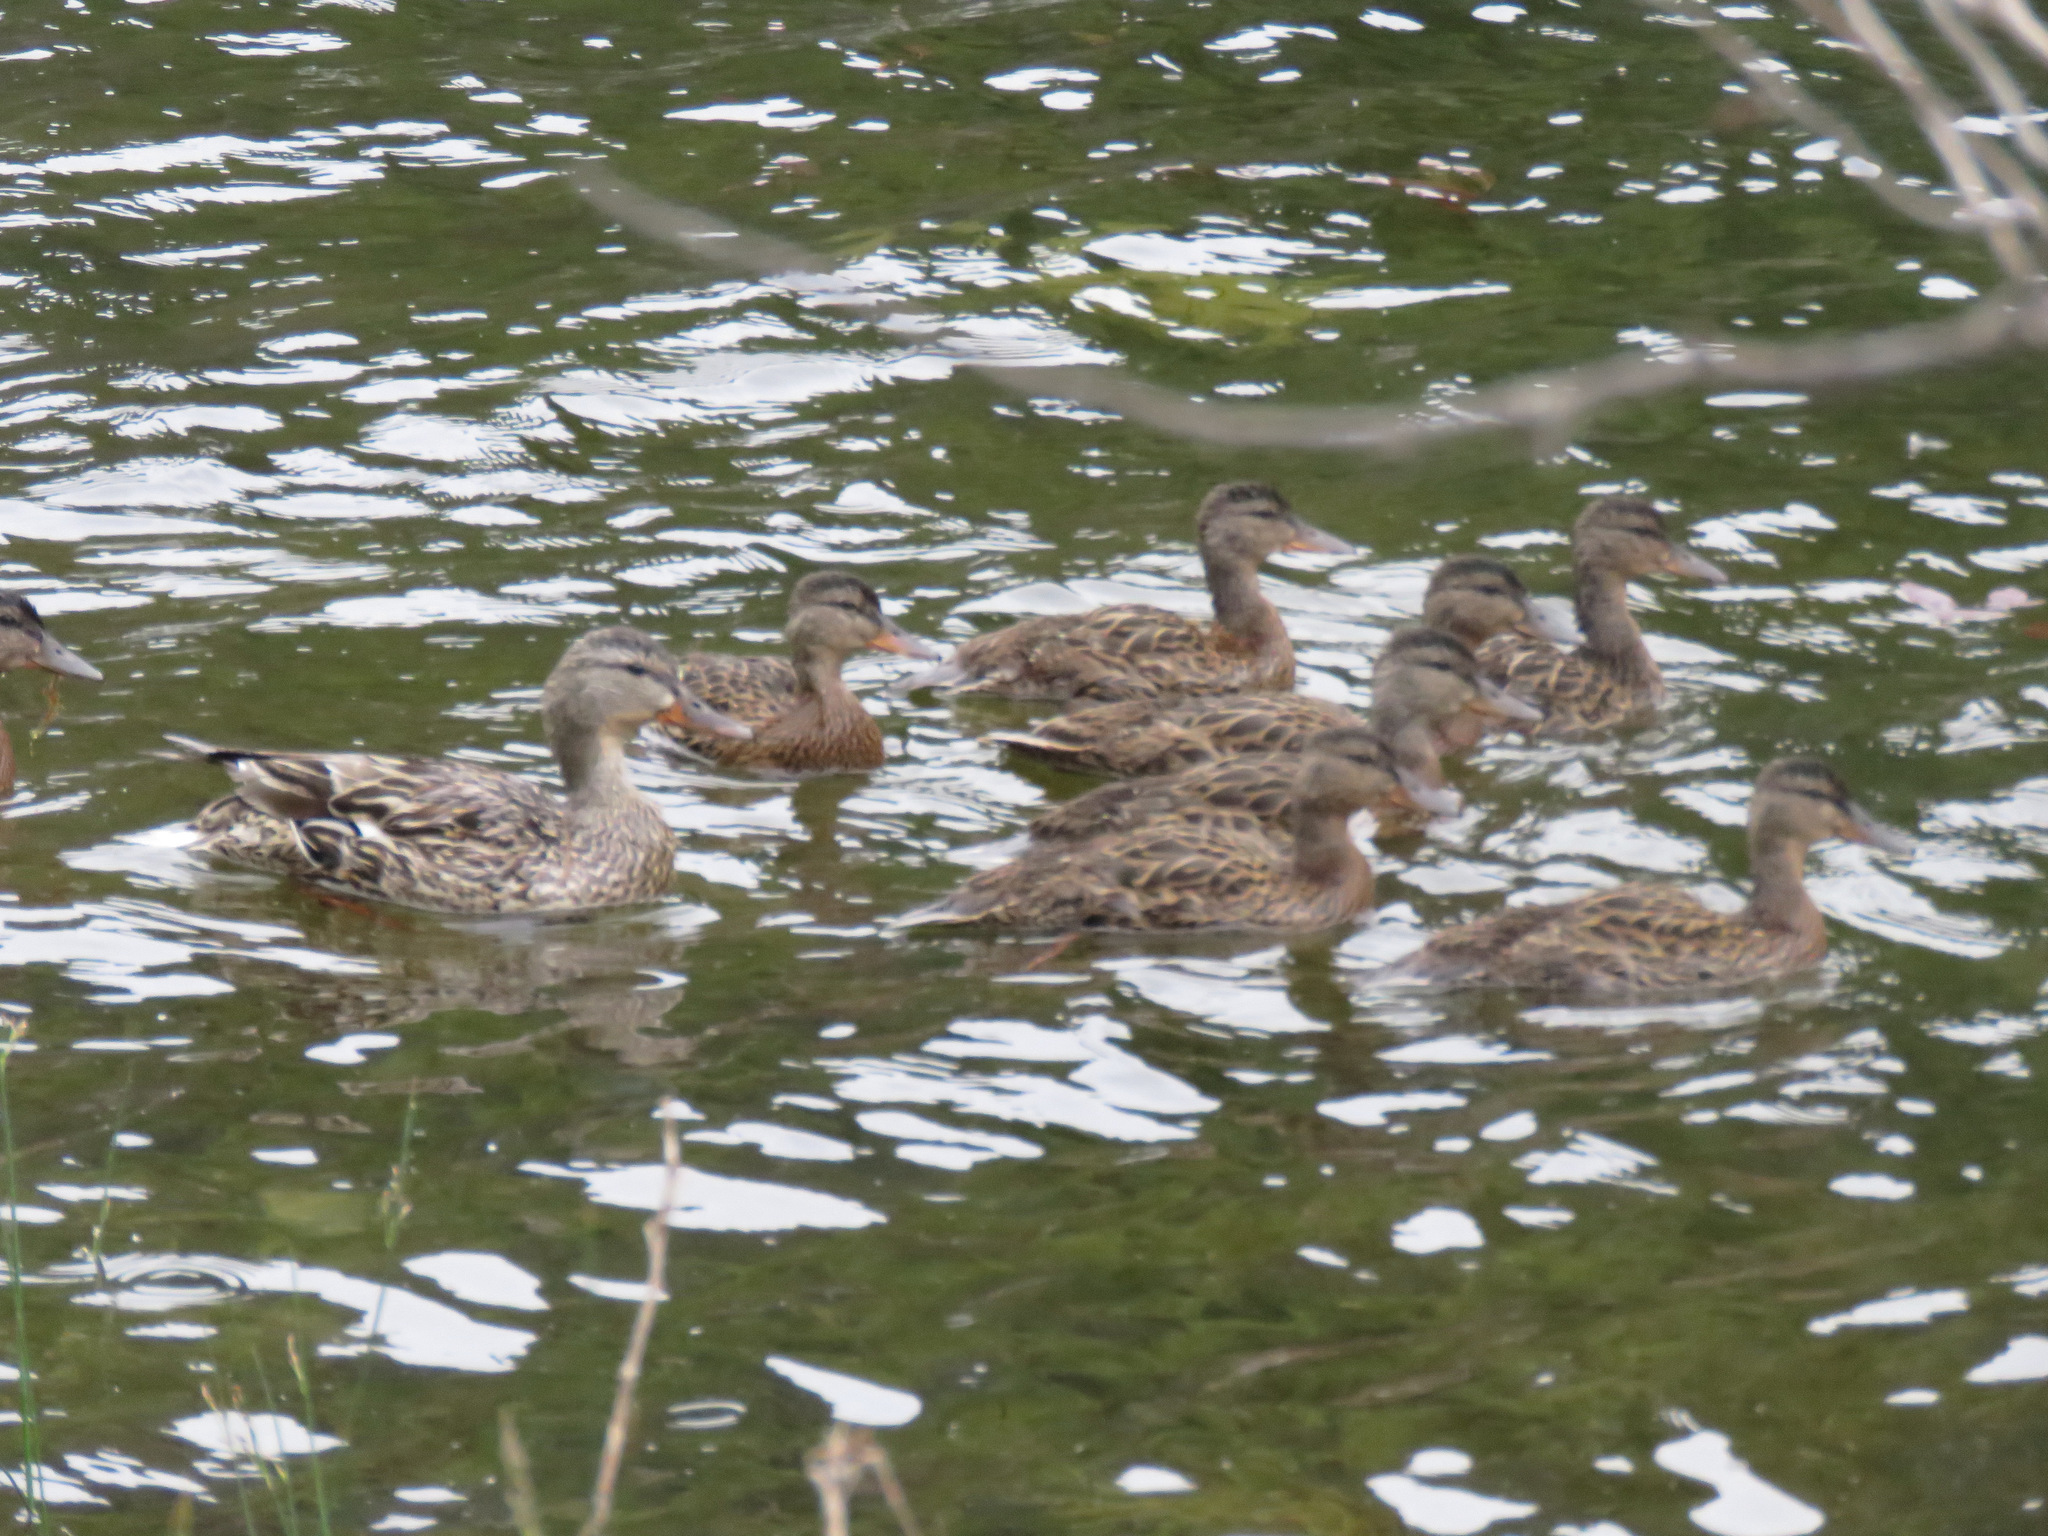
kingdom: Animalia
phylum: Chordata
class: Aves
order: Anseriformes
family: Anatidae
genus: Anas
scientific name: Anas platyrhynchos
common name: Mallard
